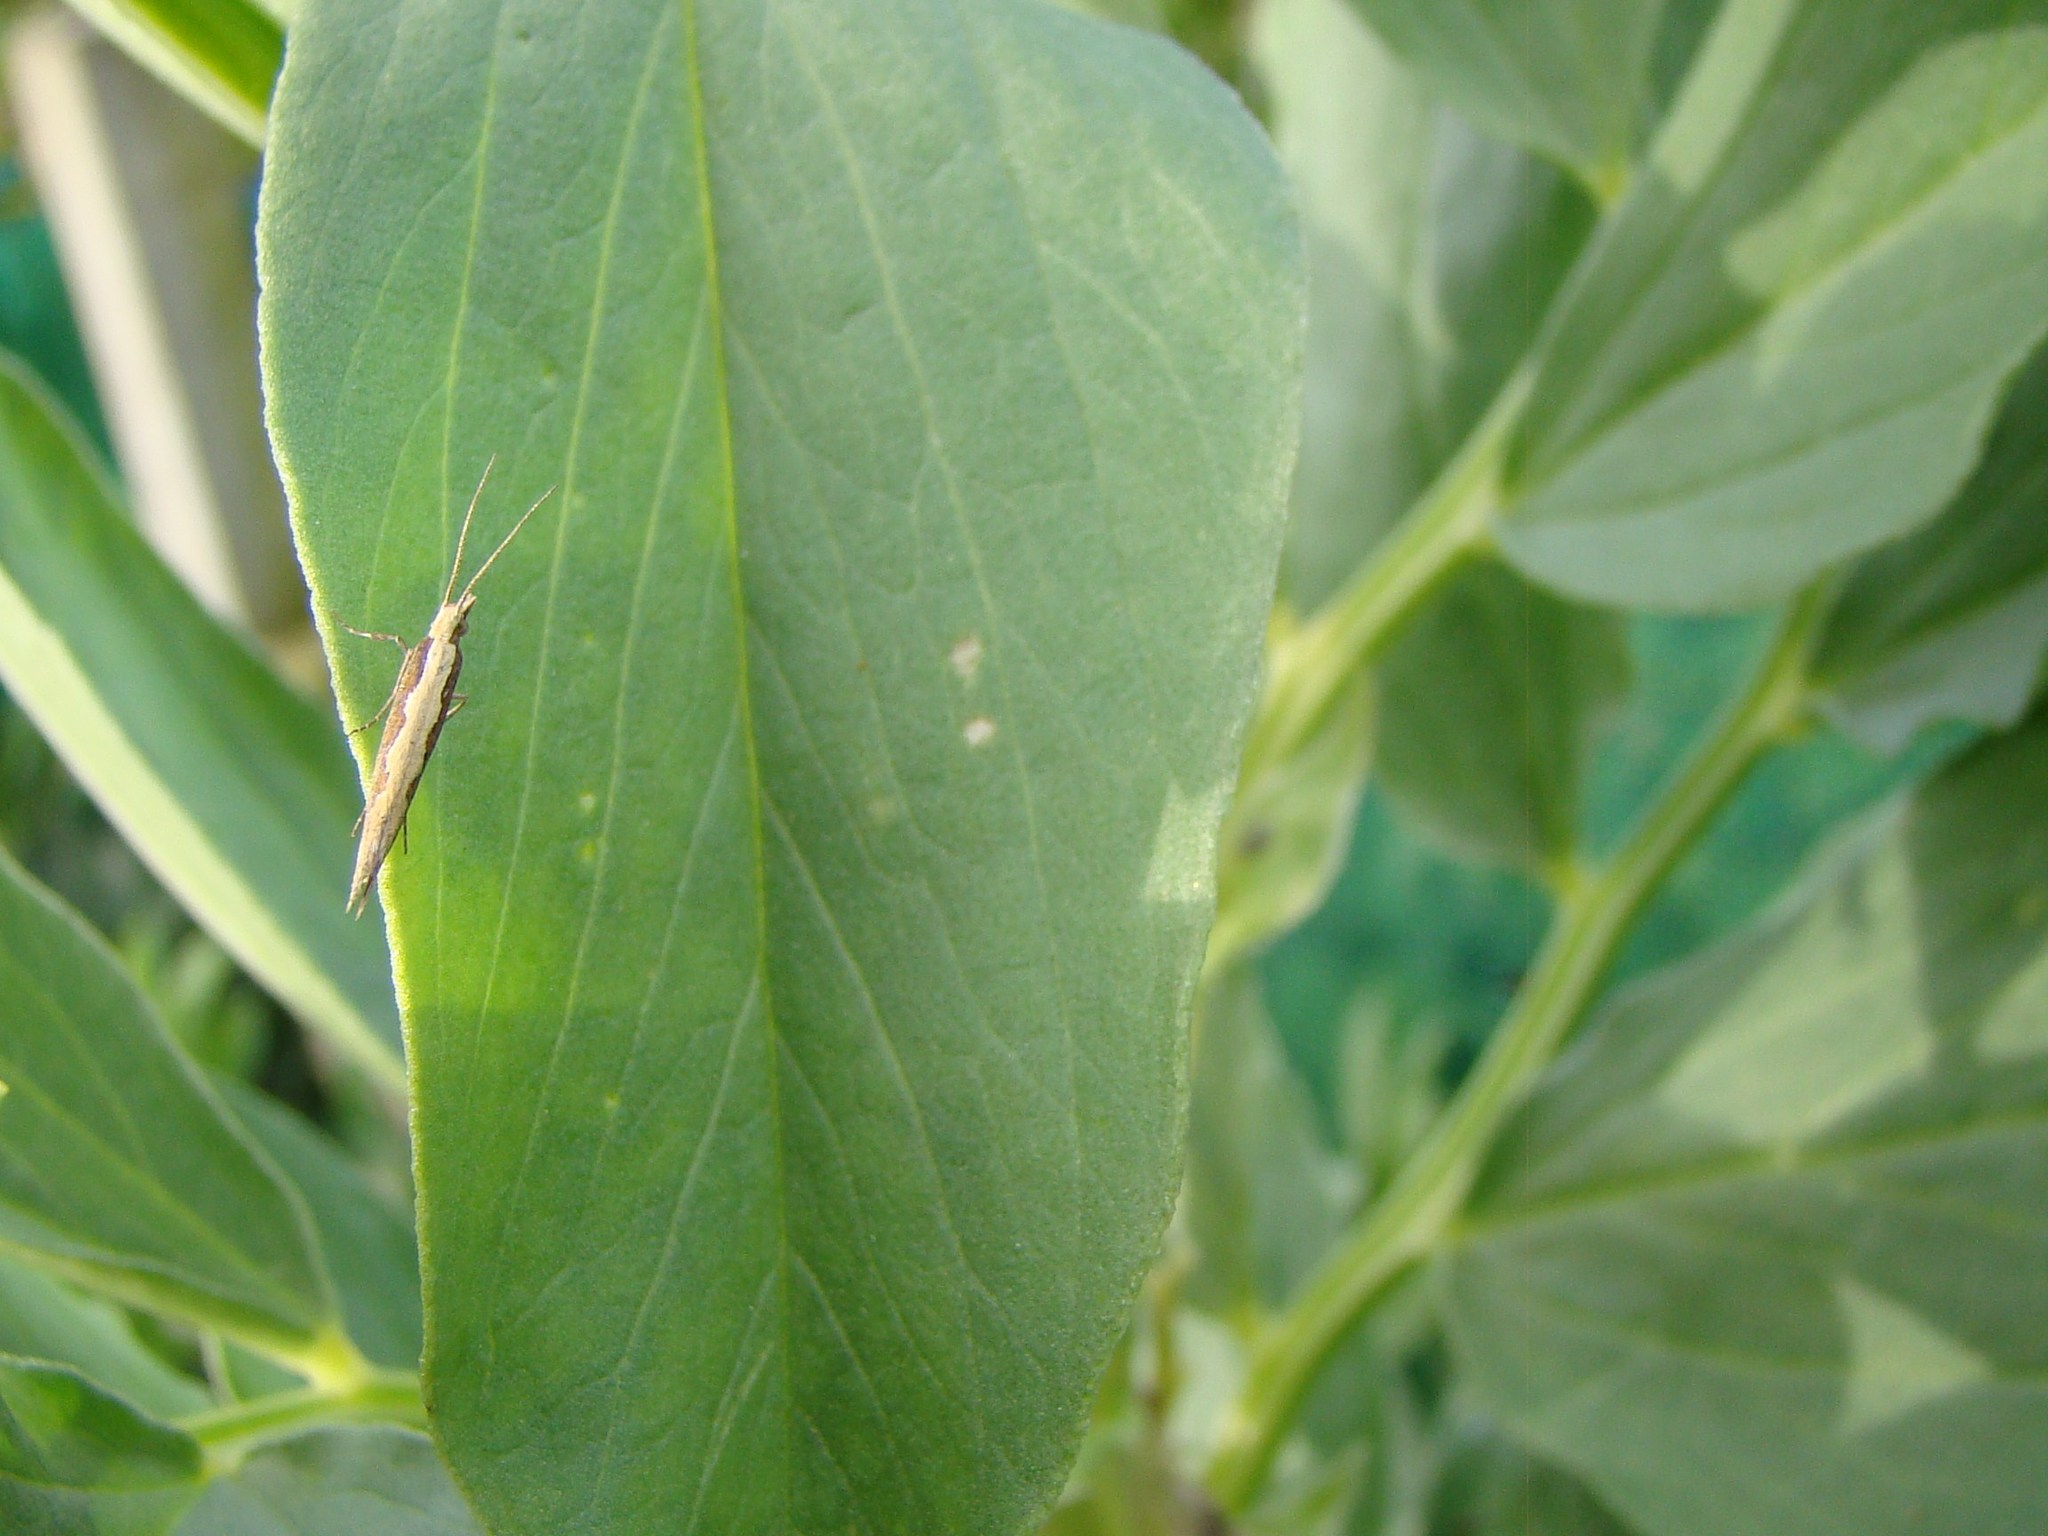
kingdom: Animalia
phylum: Arthropoda
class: Insecta
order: Lepidoptera
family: Plutellidae
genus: Plutella
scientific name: Plutella xylostella
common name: Diamond-back moth
